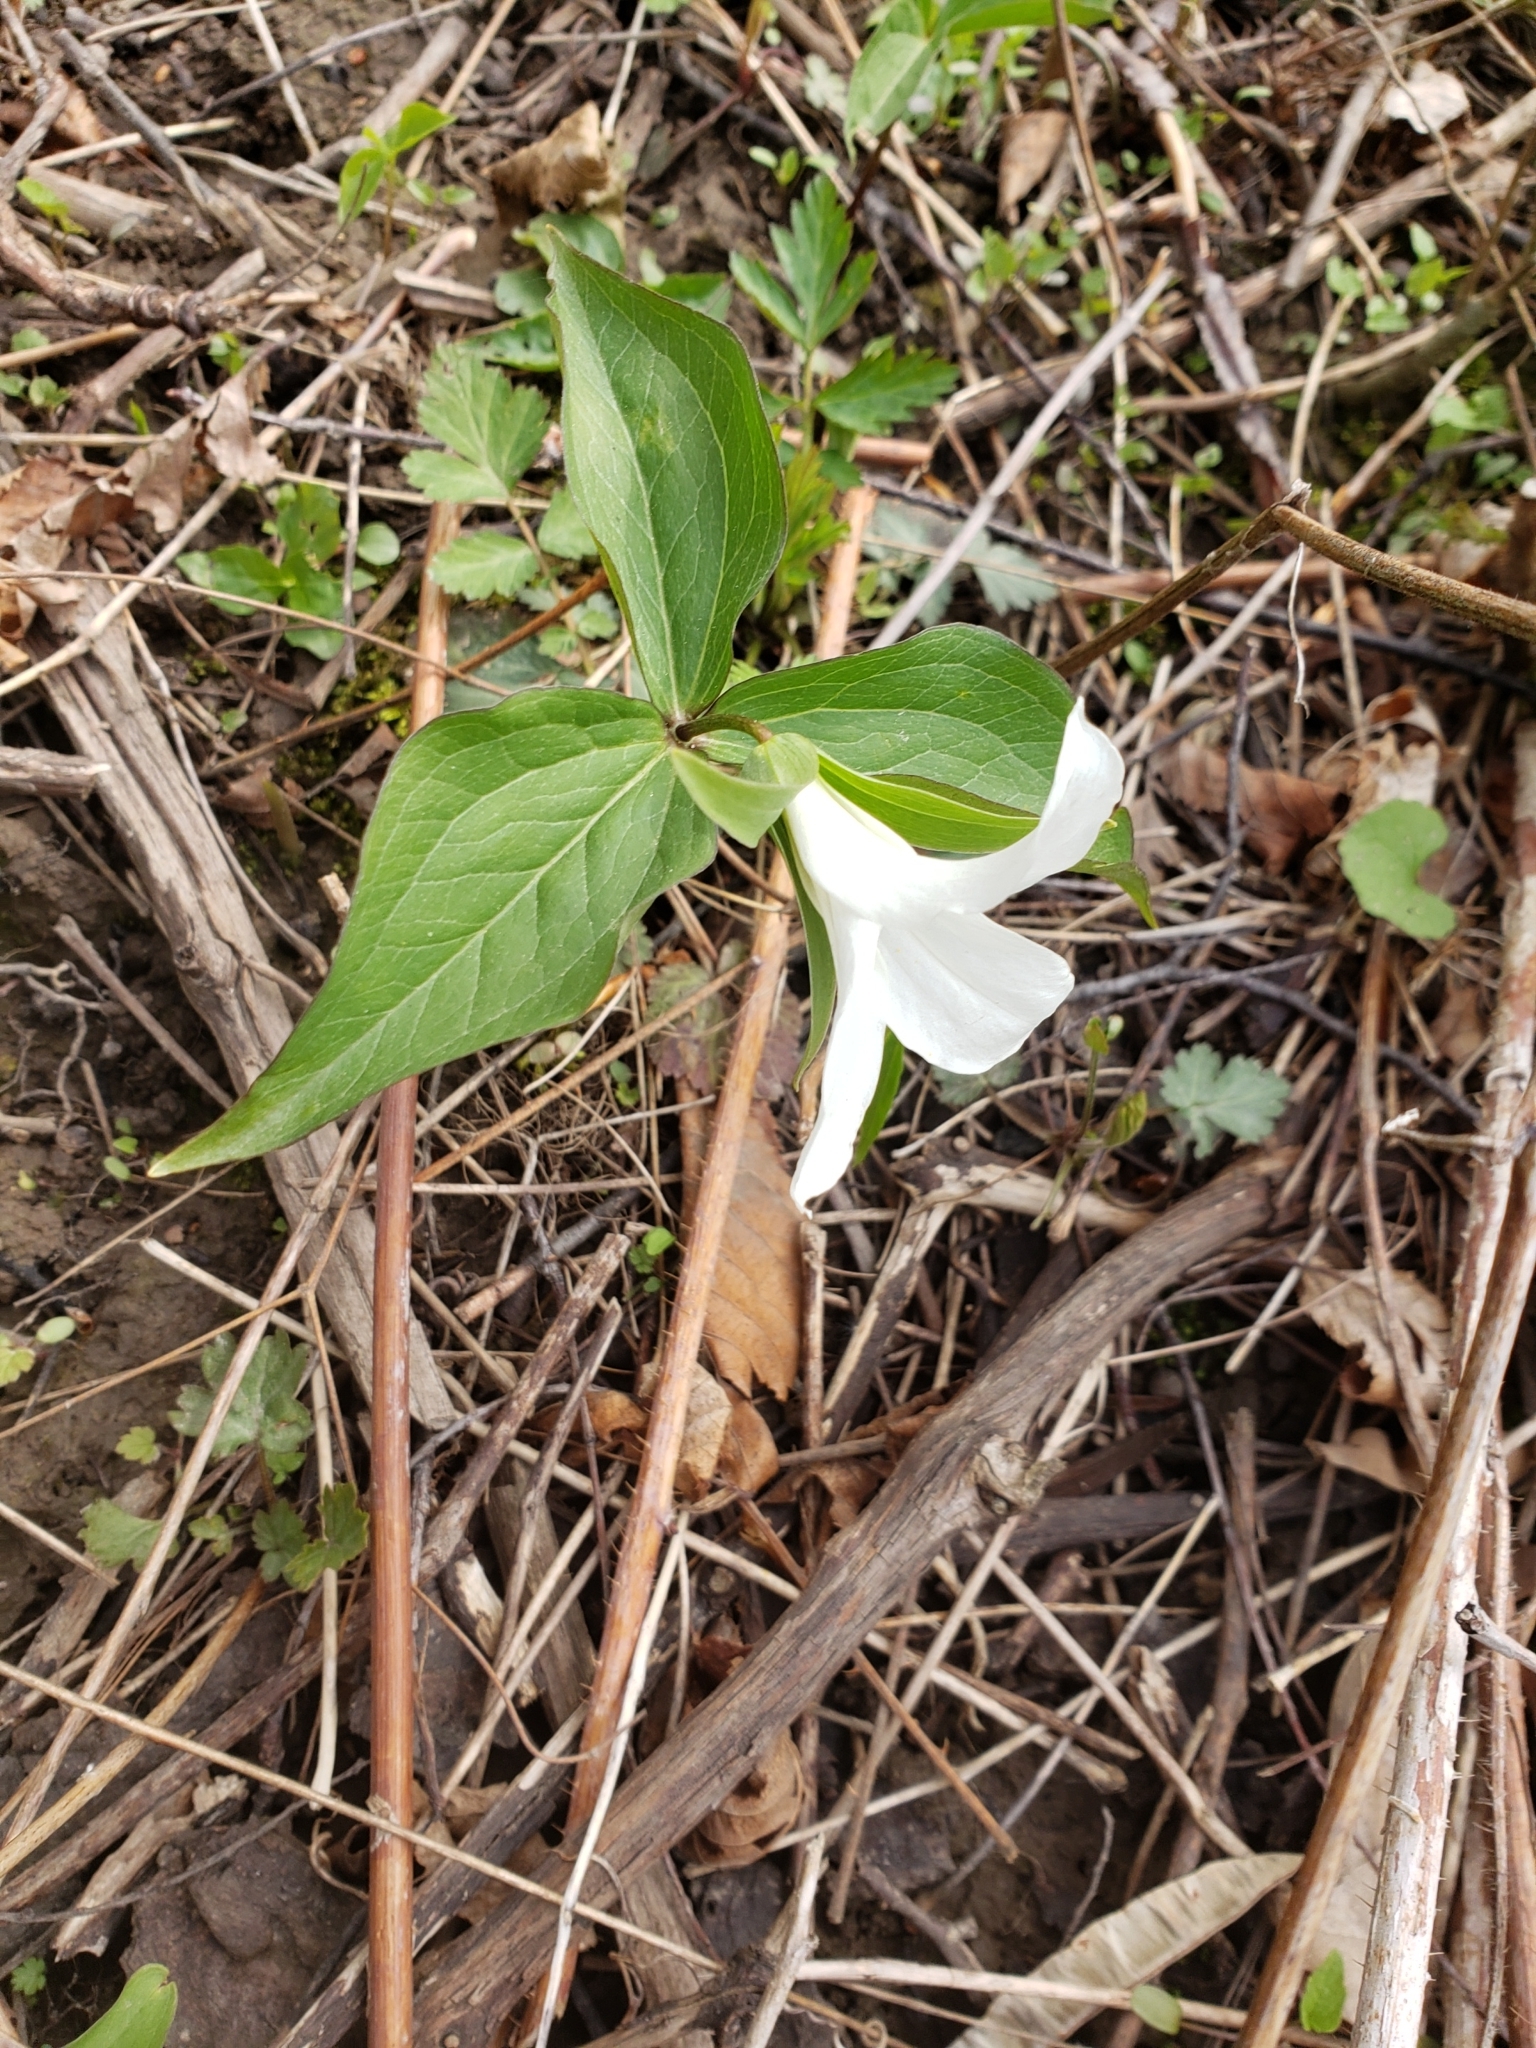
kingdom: Plantae
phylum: Tracheophyta
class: Liliopsida
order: Liliales
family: Melanthiaceae
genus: Trillium
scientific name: Trillium grandiflorum
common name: Great white trillium
